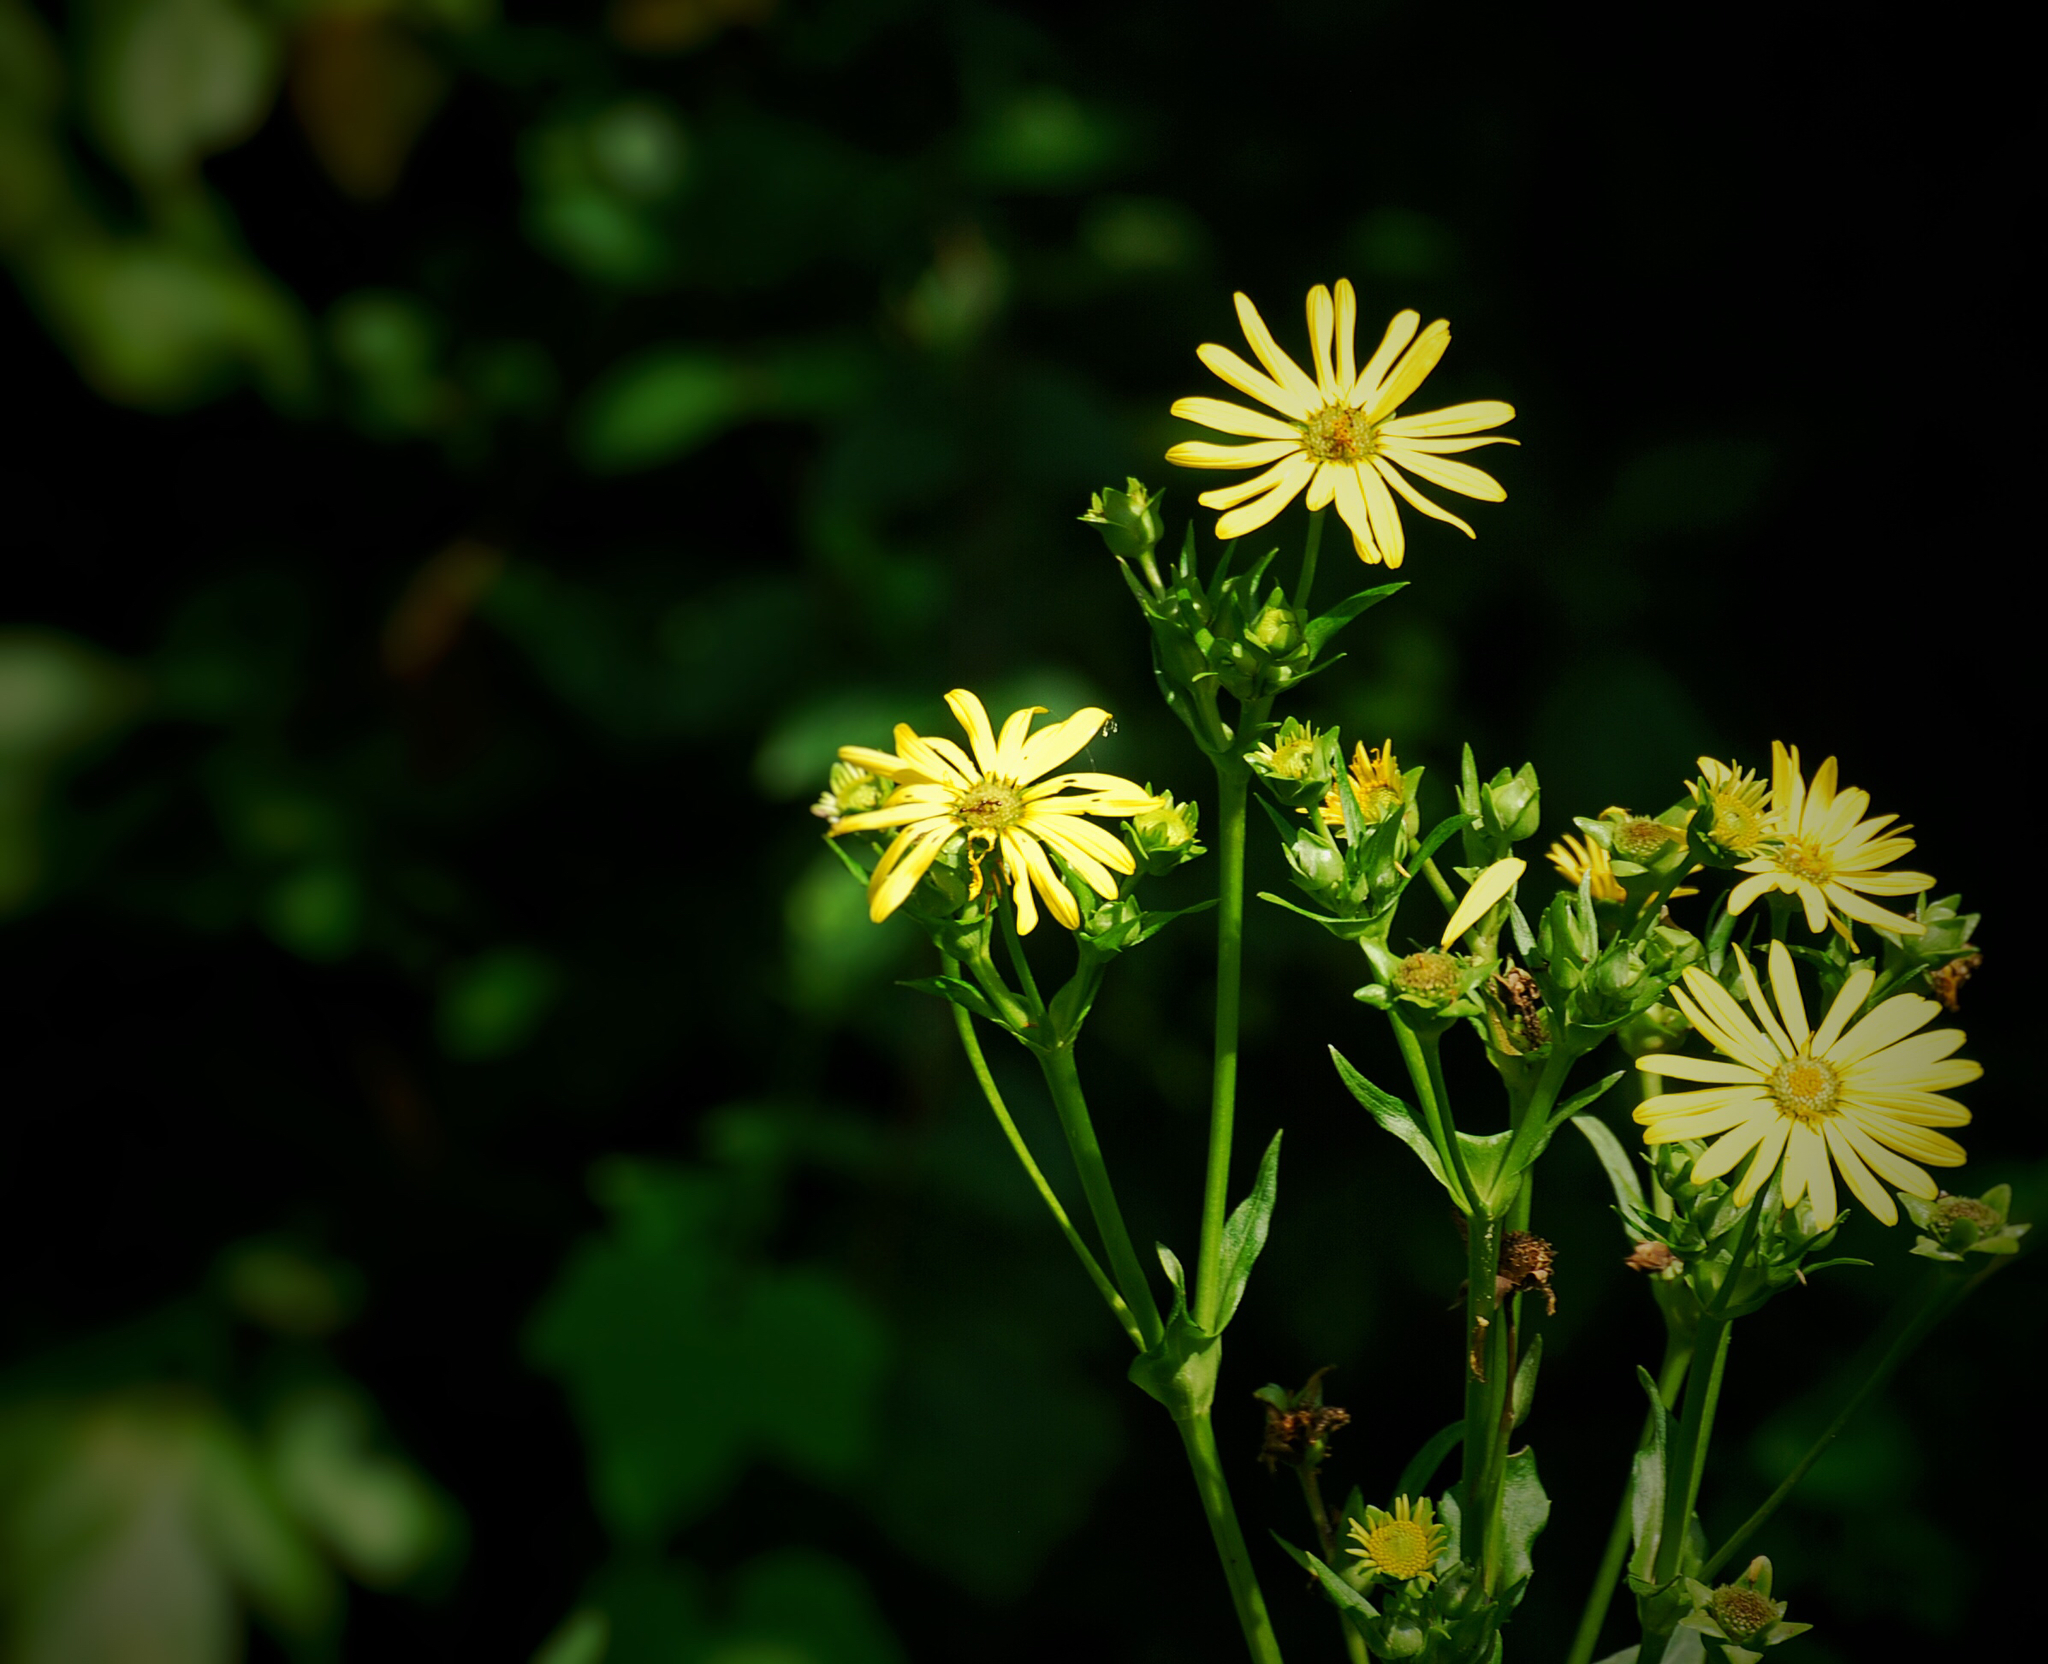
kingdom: Plantae
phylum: Tracheophyta
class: Magnoliopsida
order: Asterales
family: Asteraceae
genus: Silphium
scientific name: Silphium perfoliatum
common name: Cup-plant
